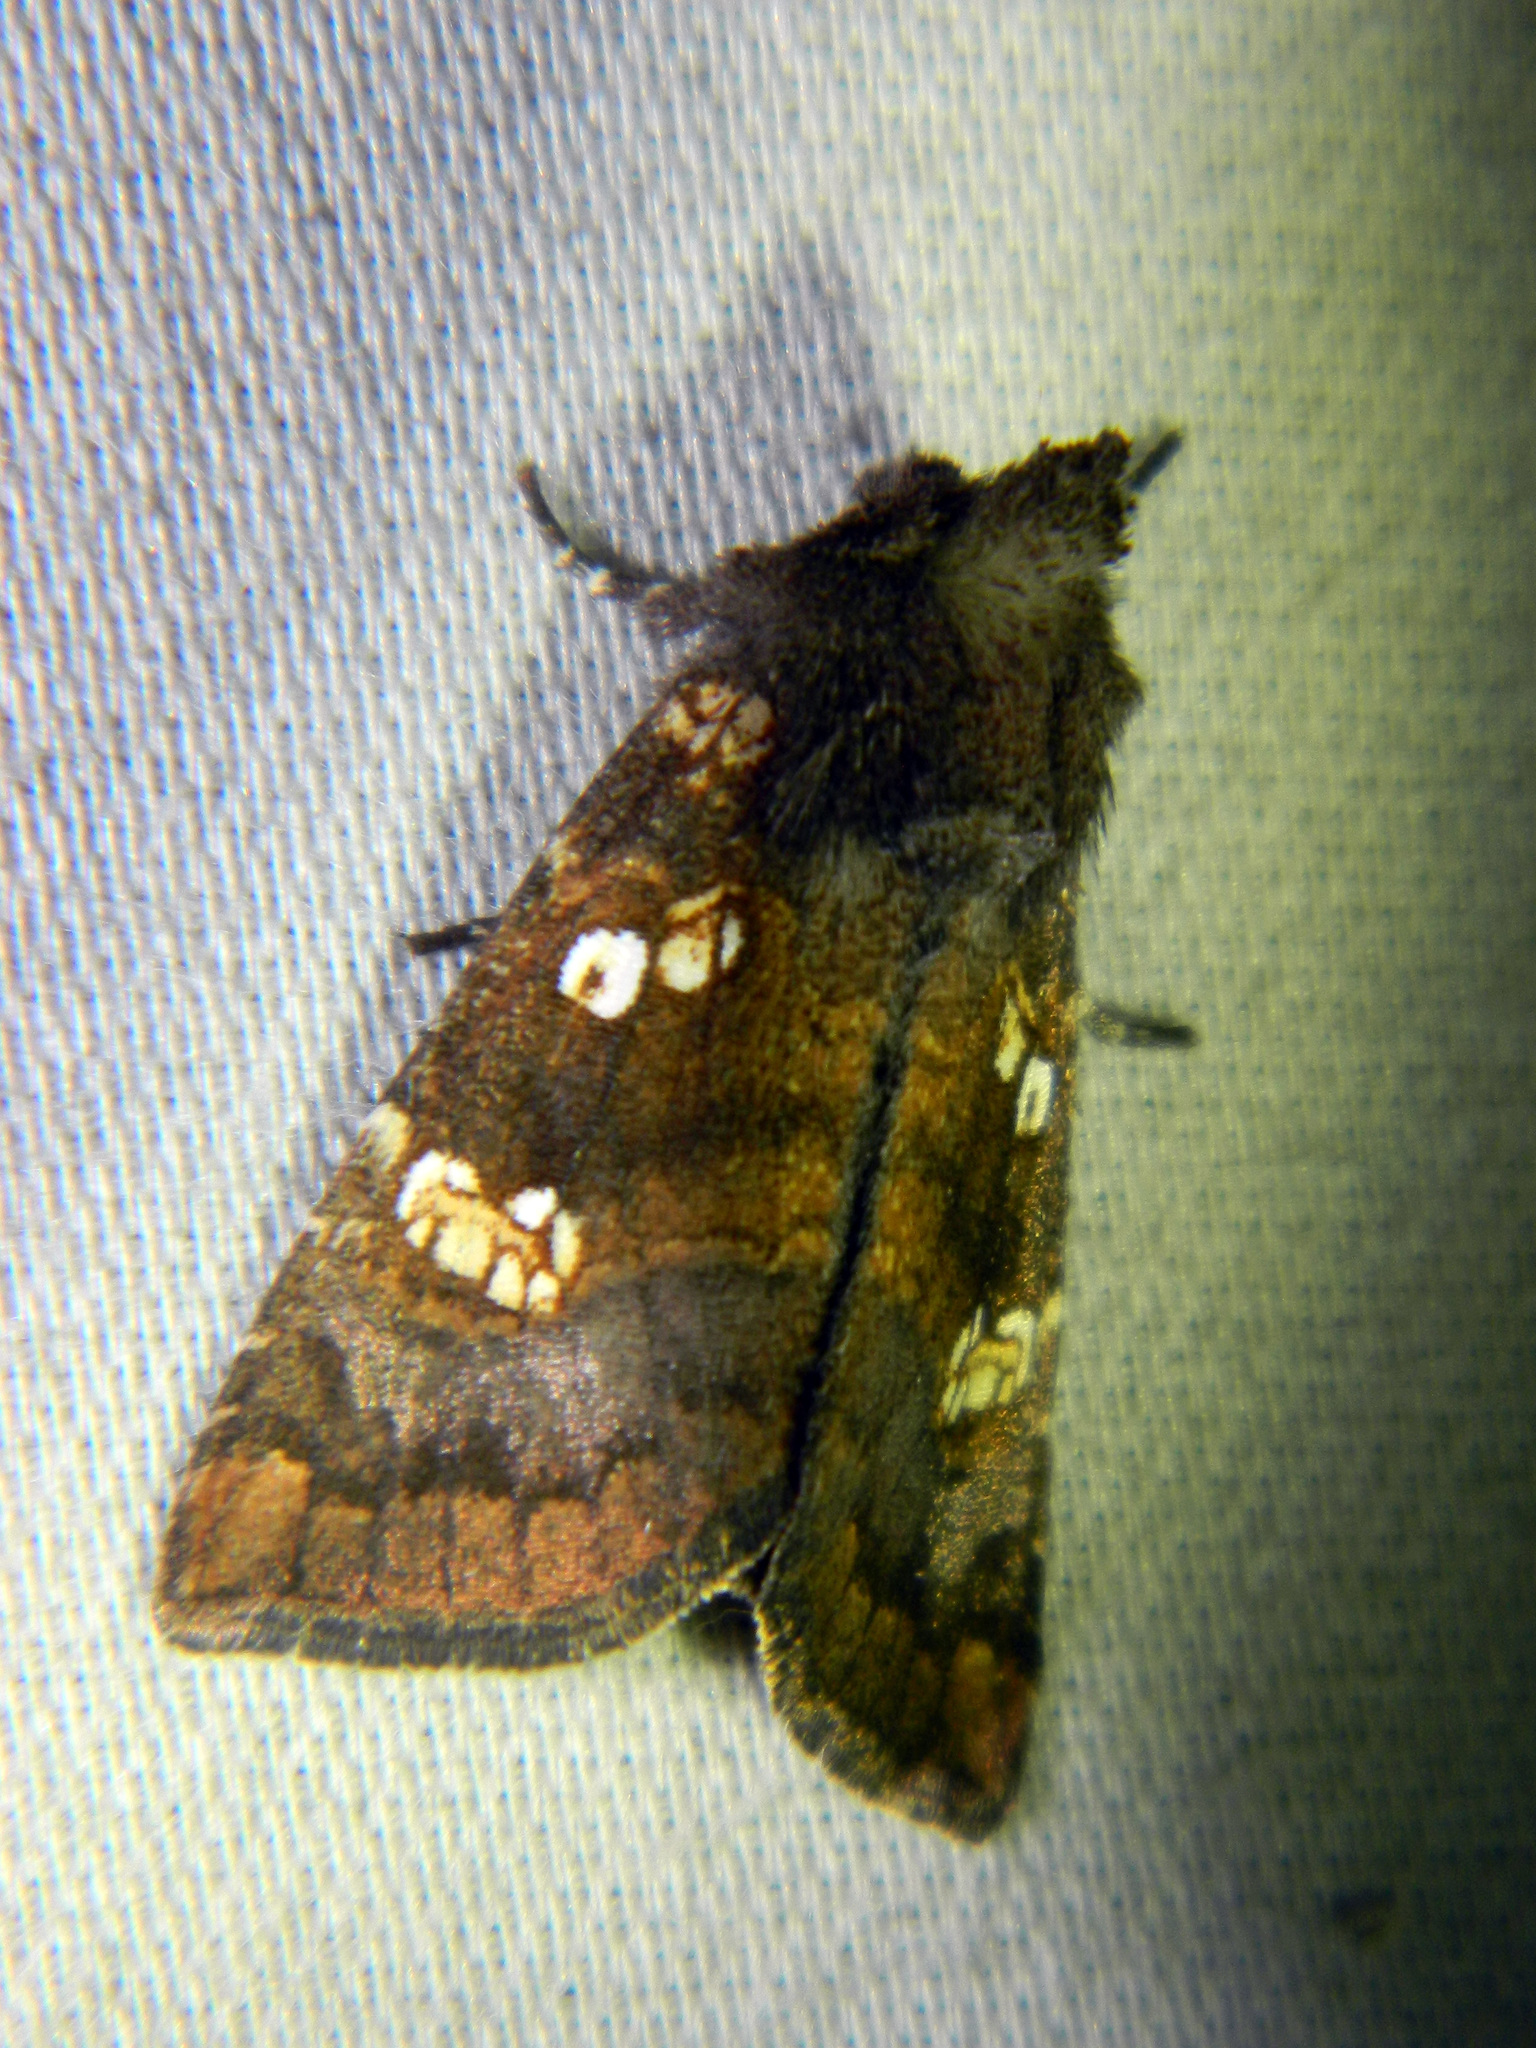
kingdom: Animalia
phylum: Arthropoda
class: Insecta
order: Lepidoptera
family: Noctuidae
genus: Papaipema
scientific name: Papaipema unimoda
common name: Meadow rue borer moth
